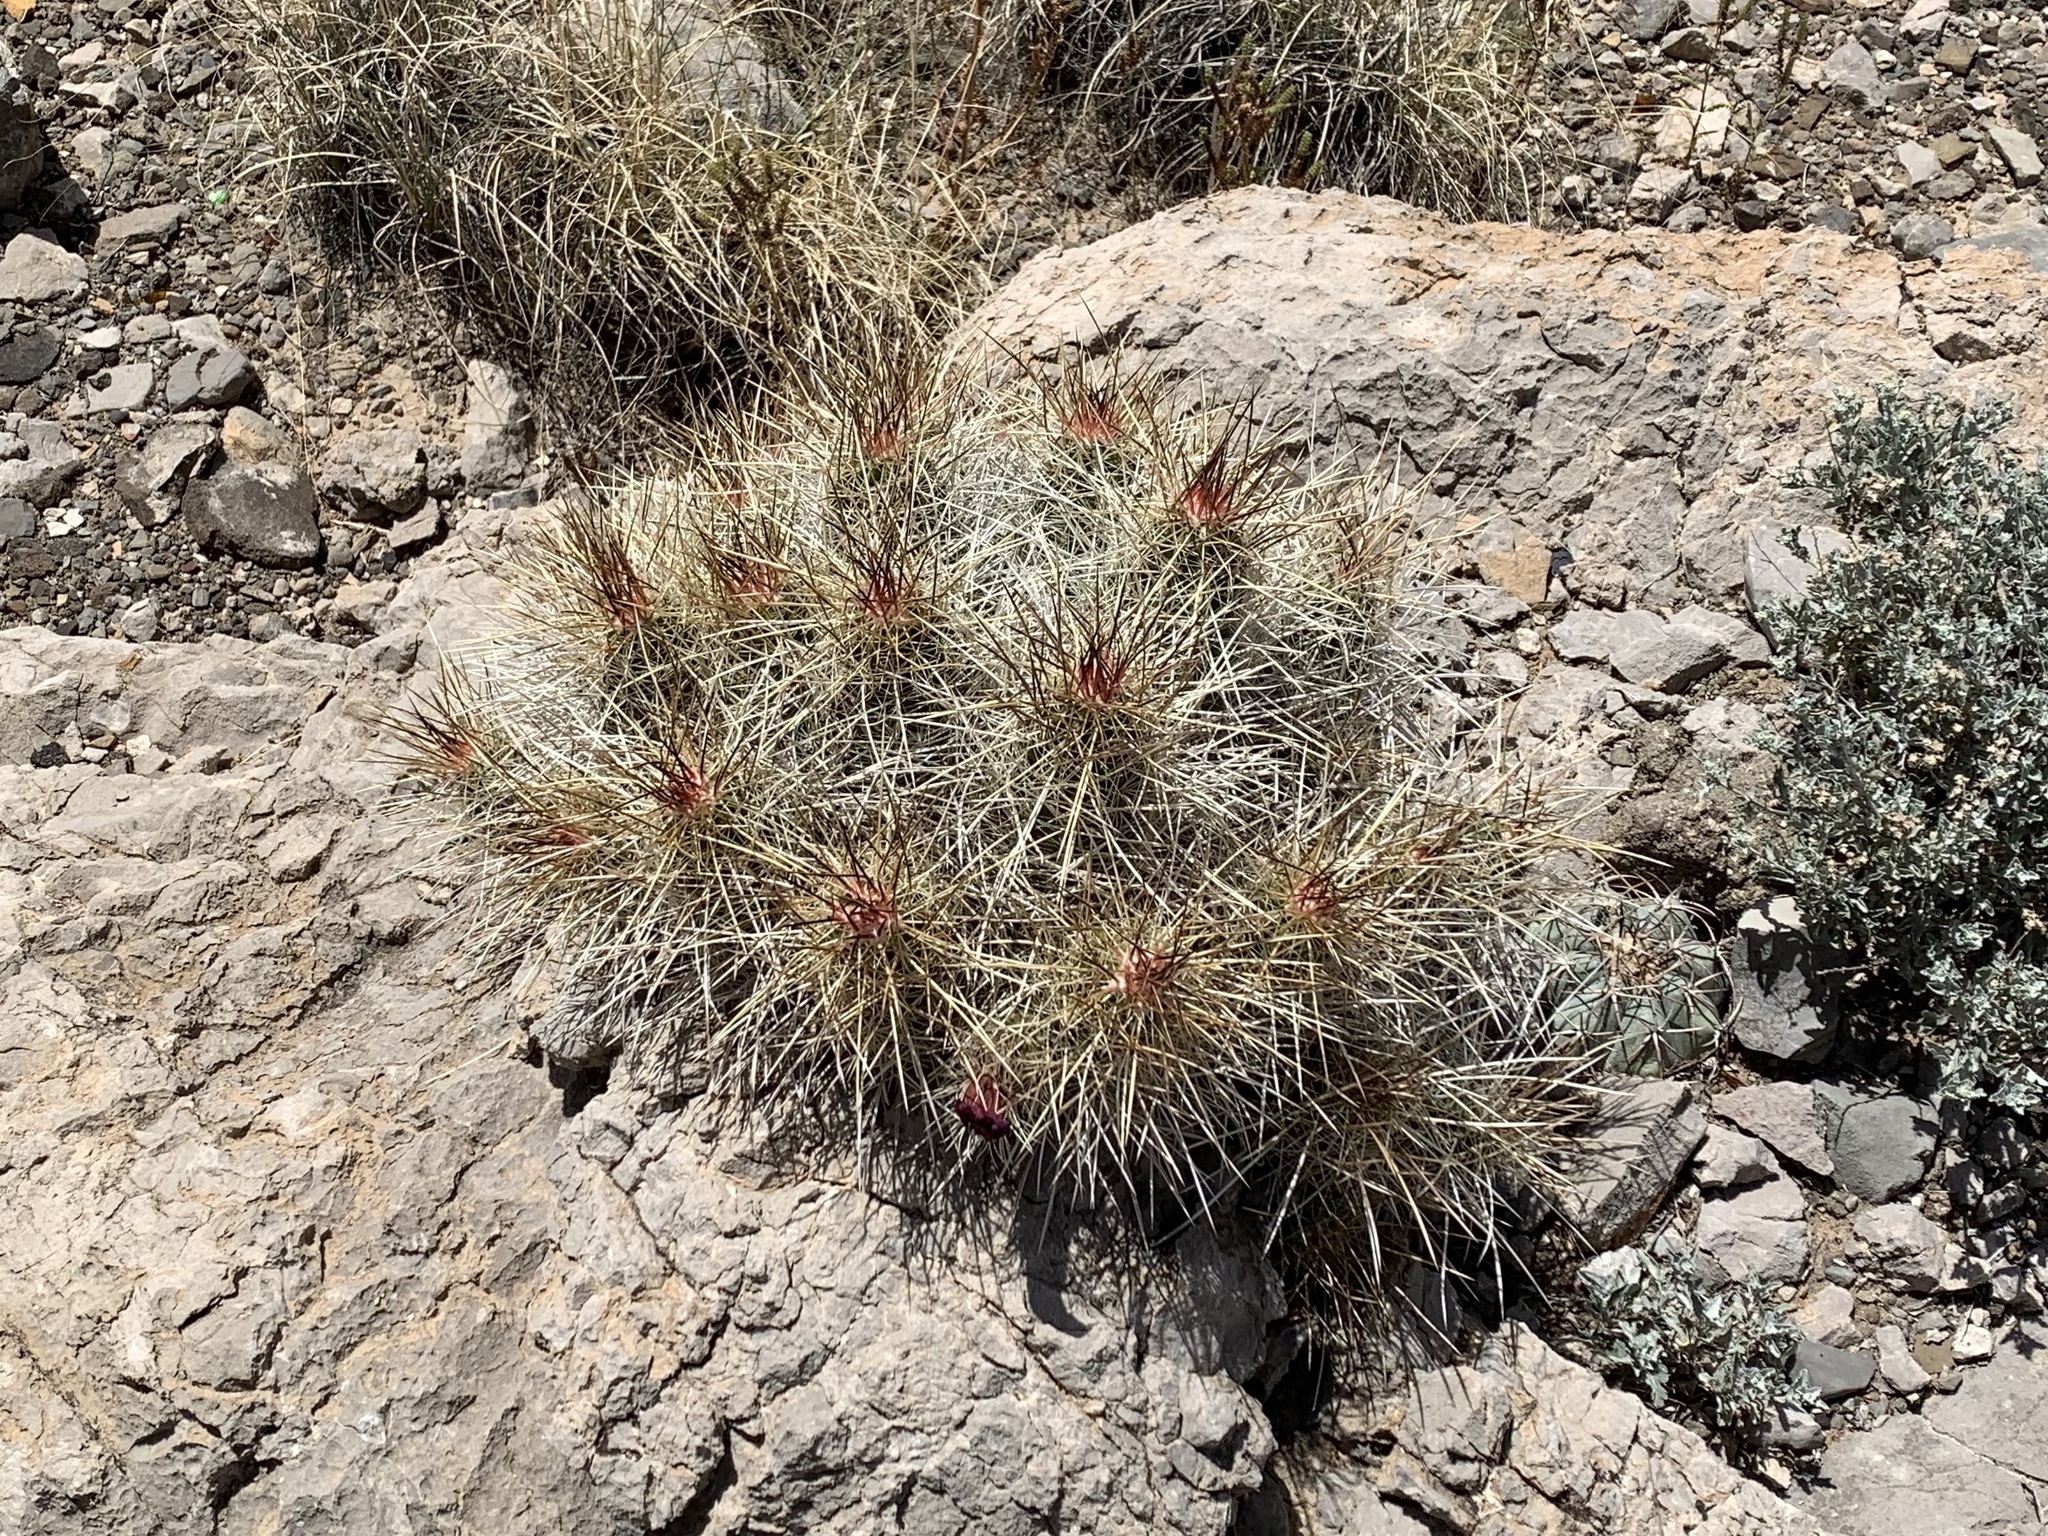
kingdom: Plantae
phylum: Tracheophyta
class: Magnoliopsida
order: Caryophyllales
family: Cactaceae
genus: Echinocereus
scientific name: Echinocereus stramineus
